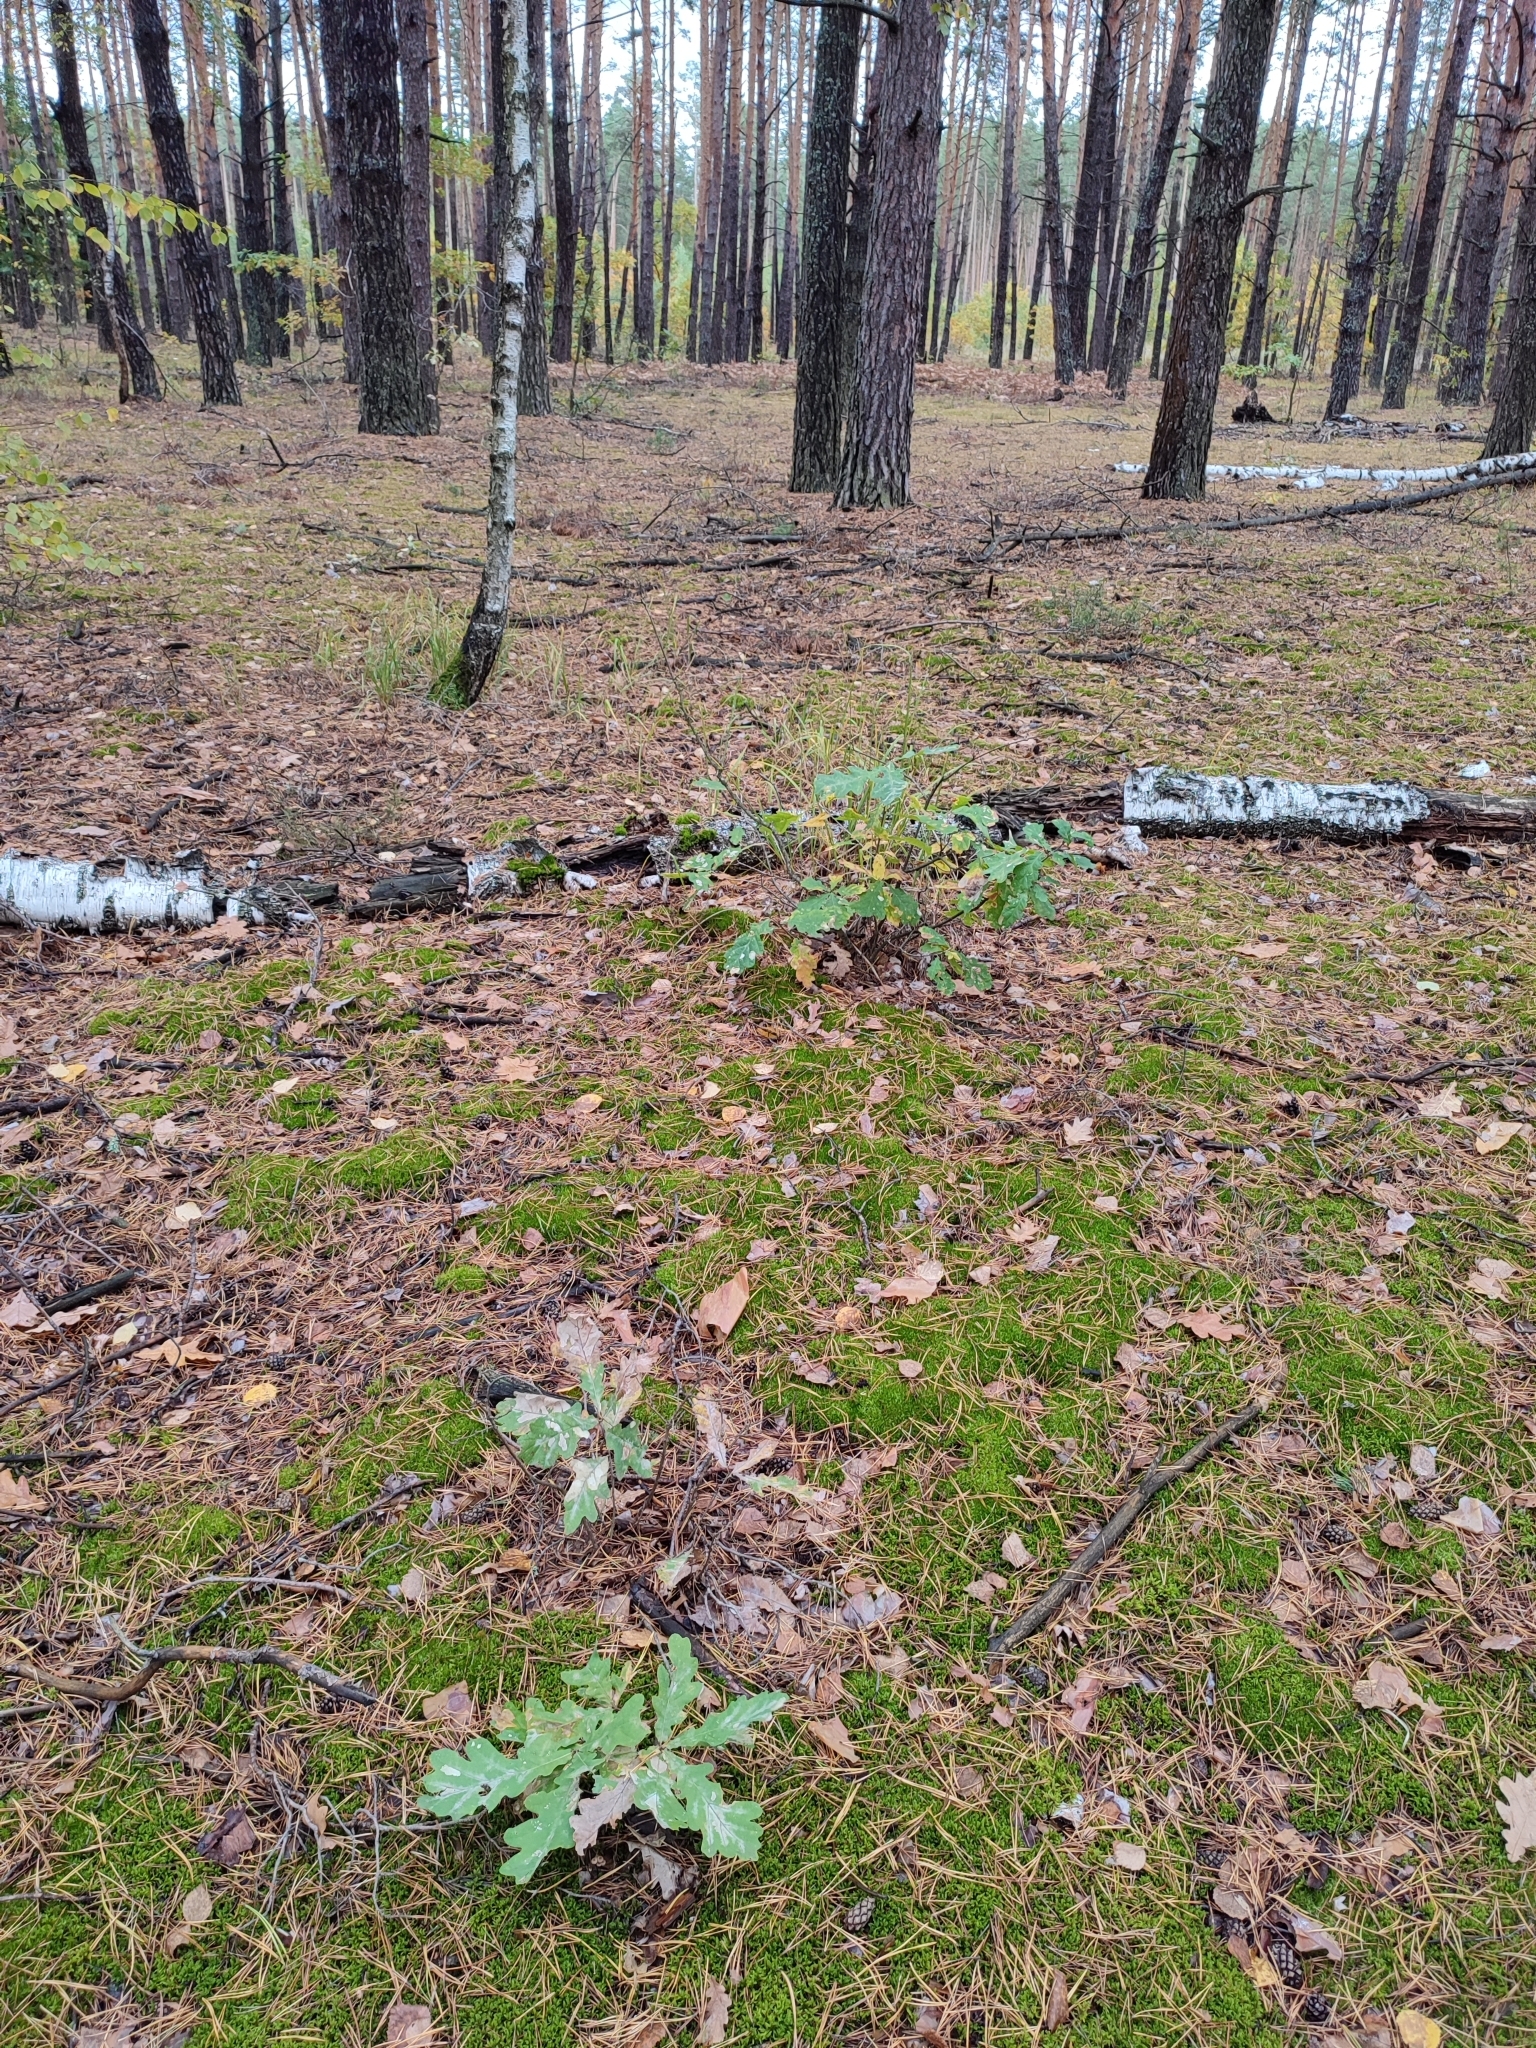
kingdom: Plantae
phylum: Tracheophyta
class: Magnoliopsida
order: Fagales
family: Fagaceae
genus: Quercus
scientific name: Quercus robur
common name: Pedunculate oak
